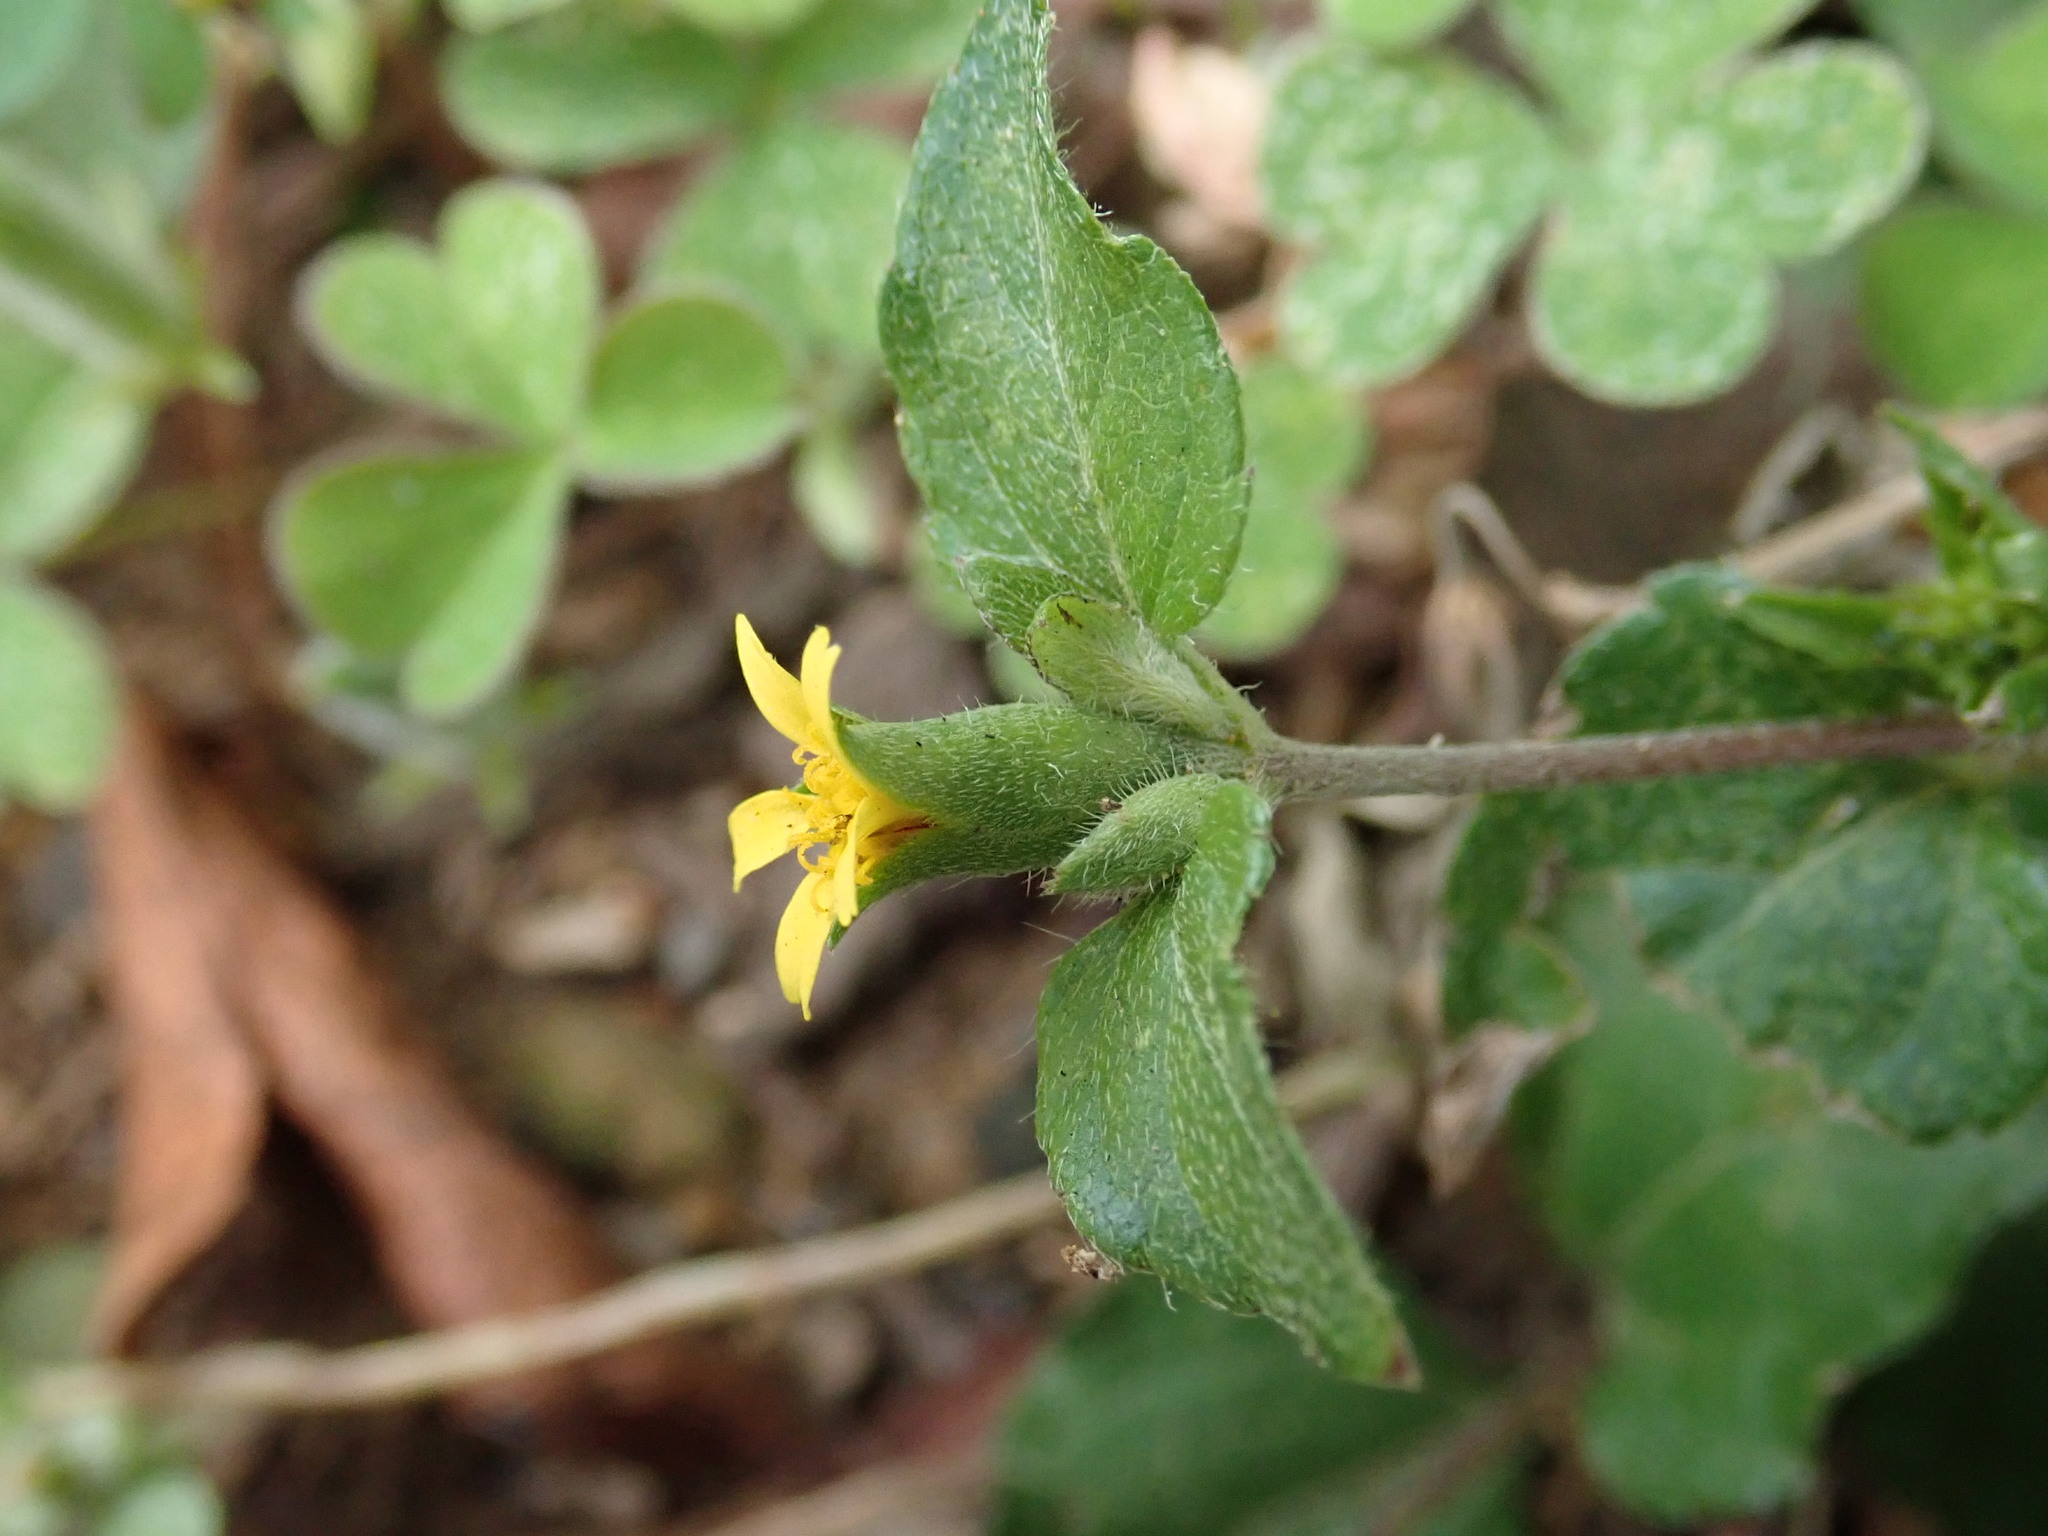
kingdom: Plantae
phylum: Tracheophyta
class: Magnoliopsida
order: Asterales
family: Asteraceae
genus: Calyptocarpus
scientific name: Calyptocarpus vialis
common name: Straggler daisy
